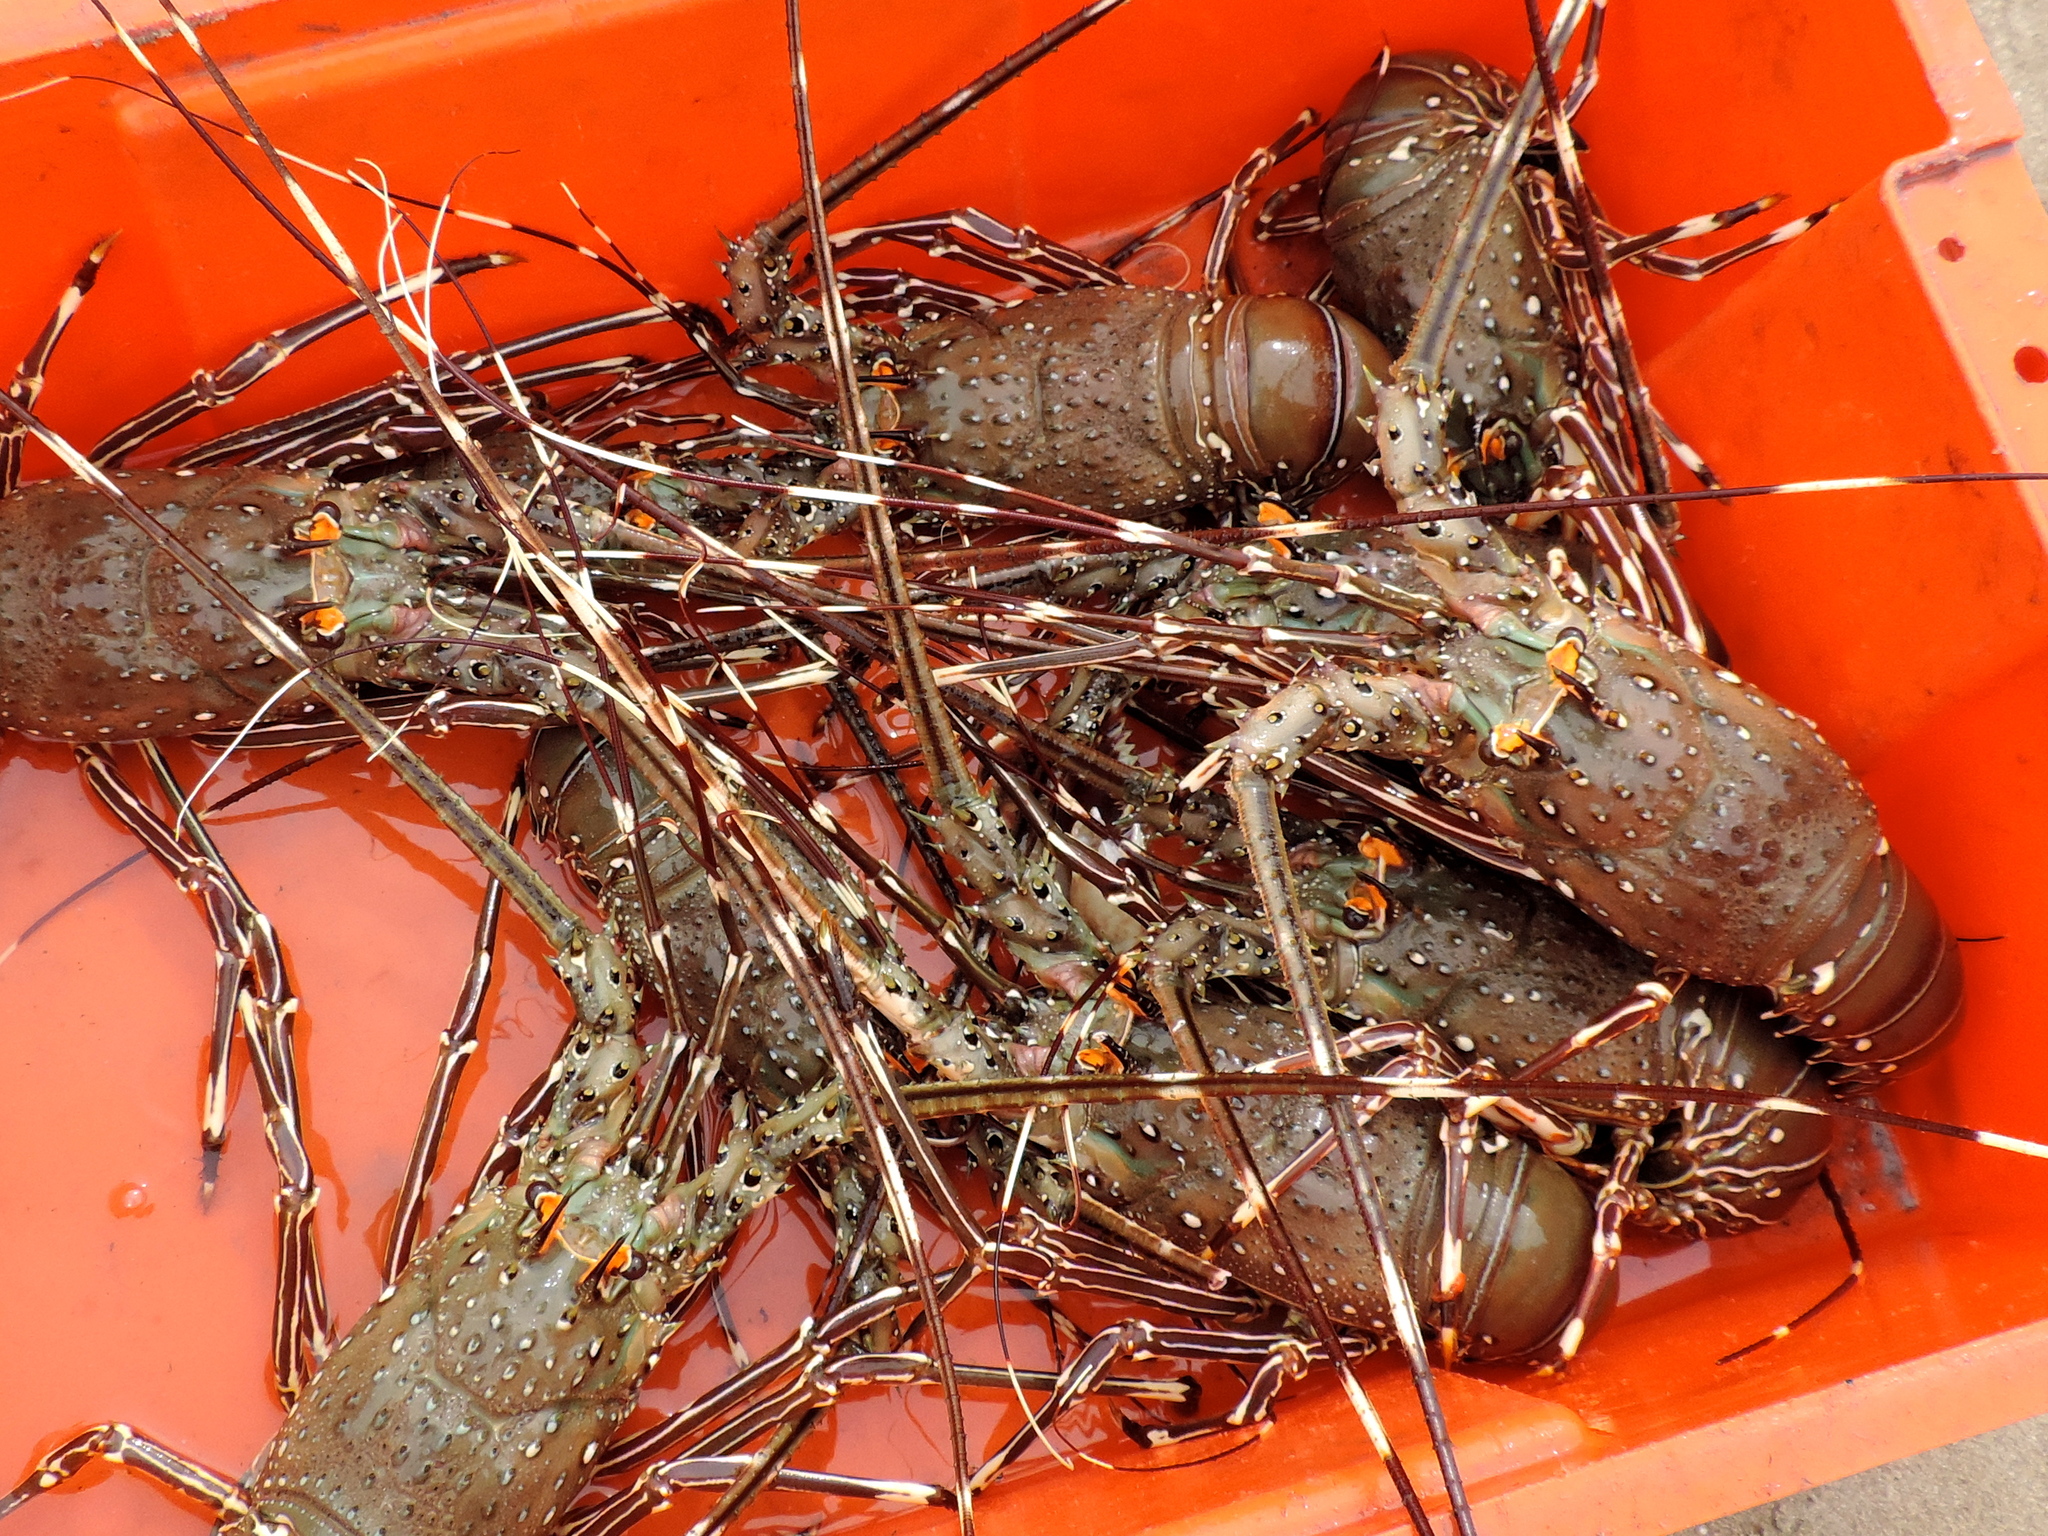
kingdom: Animalia
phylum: Arthropoda
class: Malacostraca
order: Decapoda
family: Palinuridae
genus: Panulirus
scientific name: Panulirus gracilis
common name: Green spiny lobster
